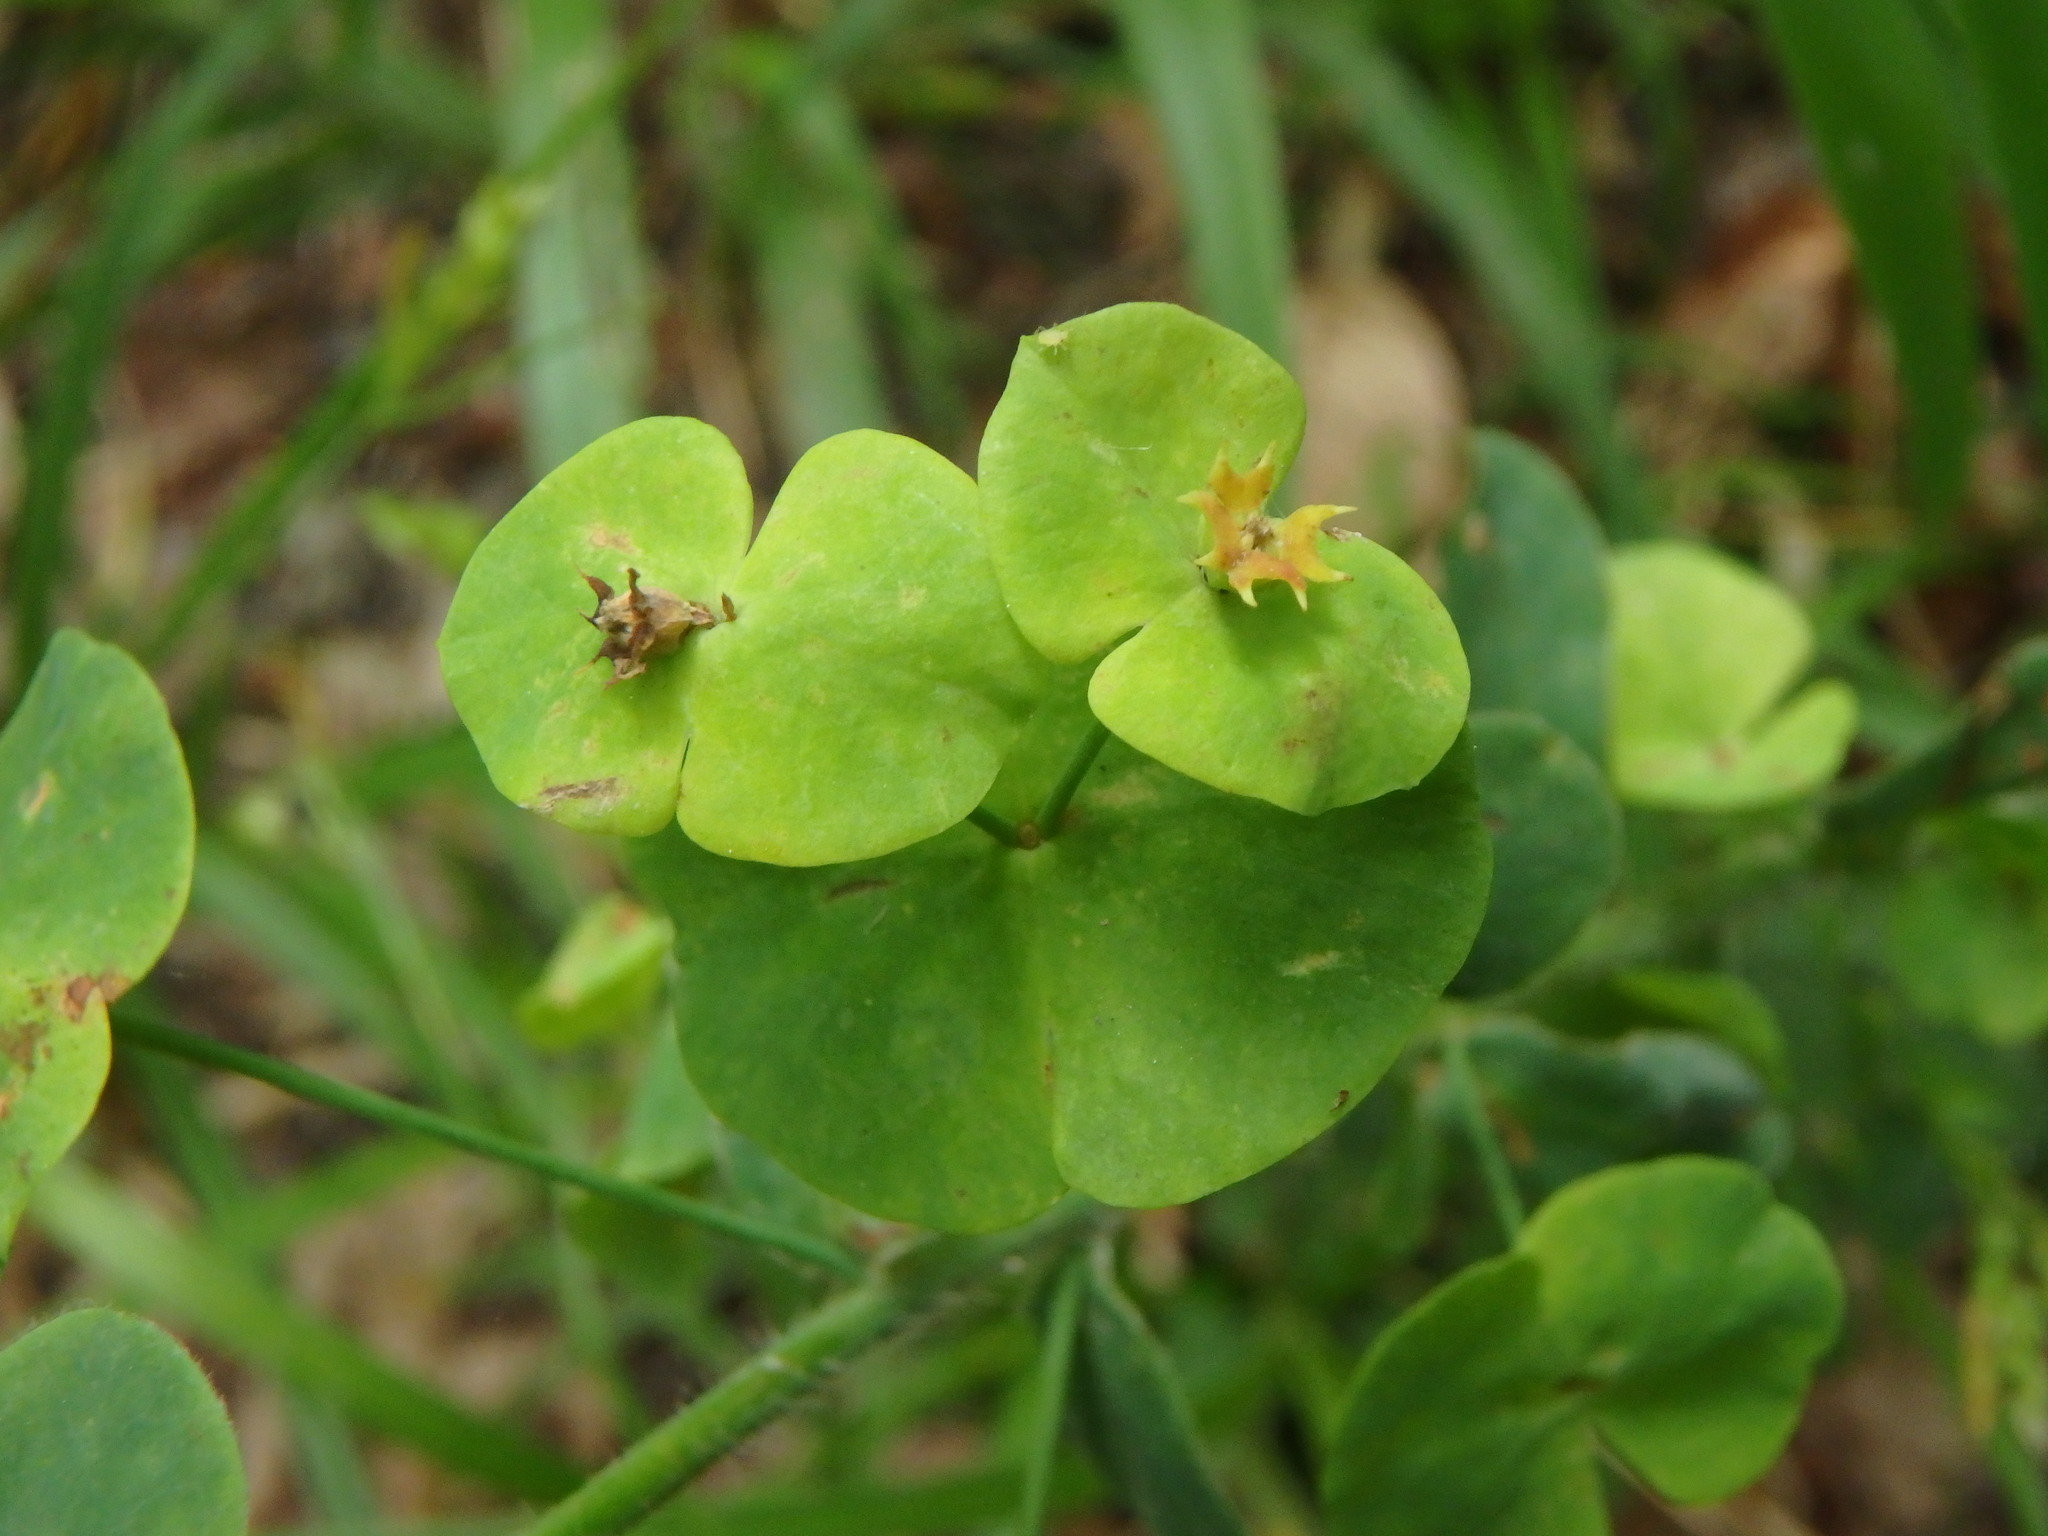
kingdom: Plantae
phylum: Tracheophyta
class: Magnoliopsida
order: Malpighiales
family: Euphorbiaceae
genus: Euphorbia
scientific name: Euphorbia amygdaloides
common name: Wood spurge
